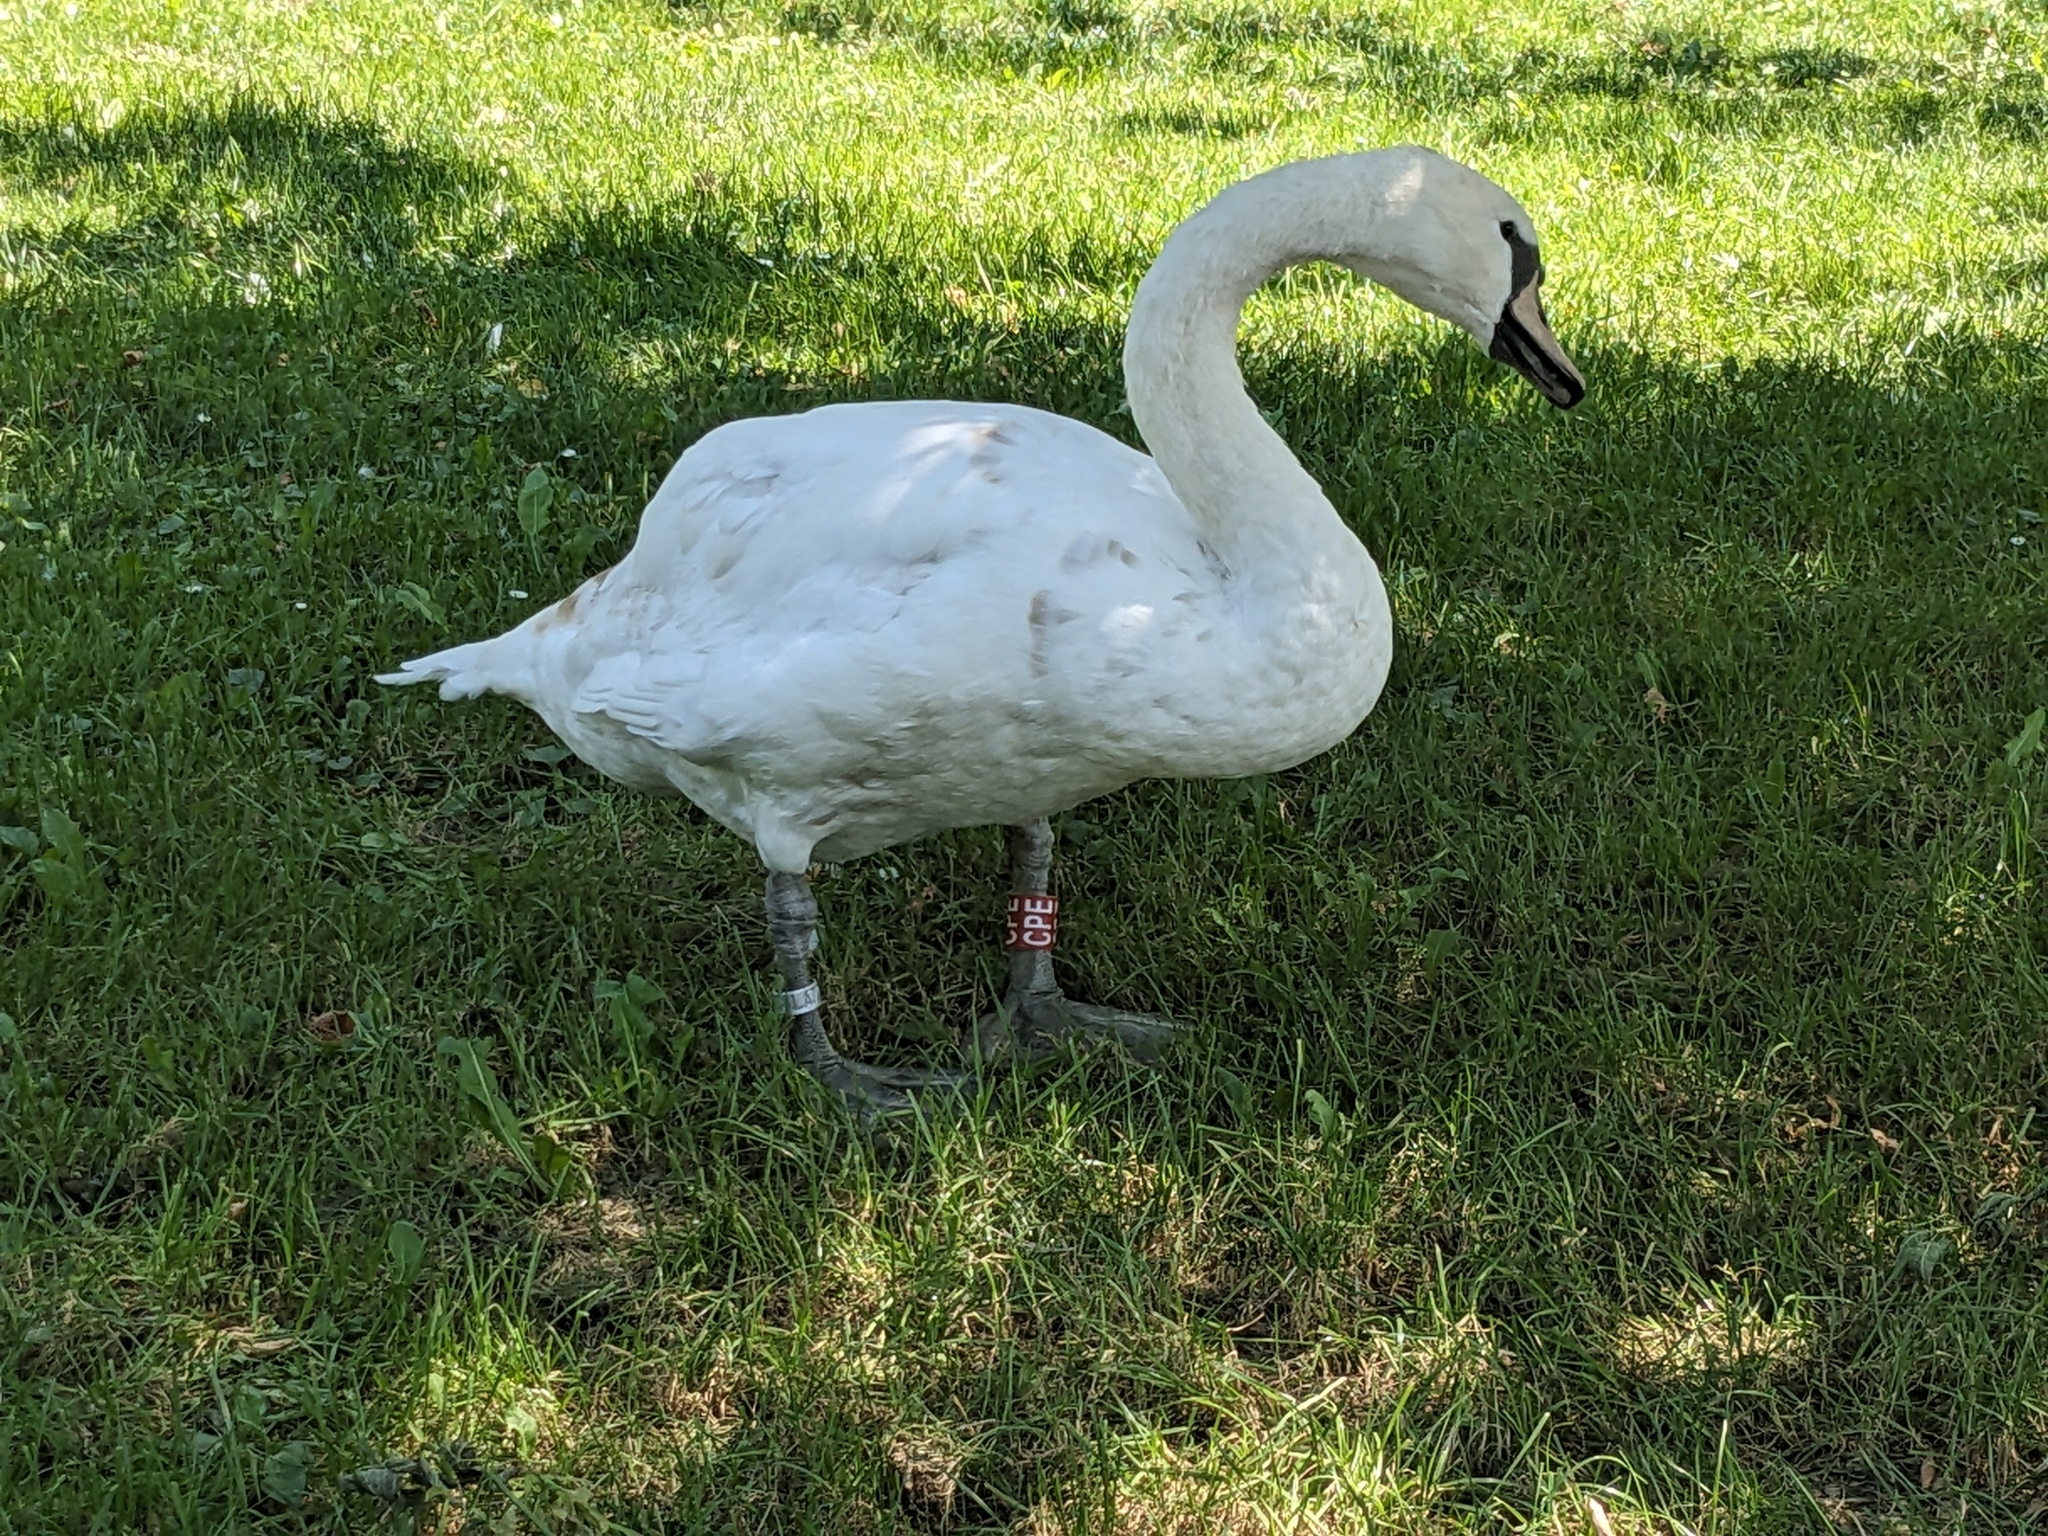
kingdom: Animalia
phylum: Chordata
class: Aves
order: Anseriformes
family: Anatidae
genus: Cygnus
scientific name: Cygnus olor
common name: Mute swan
